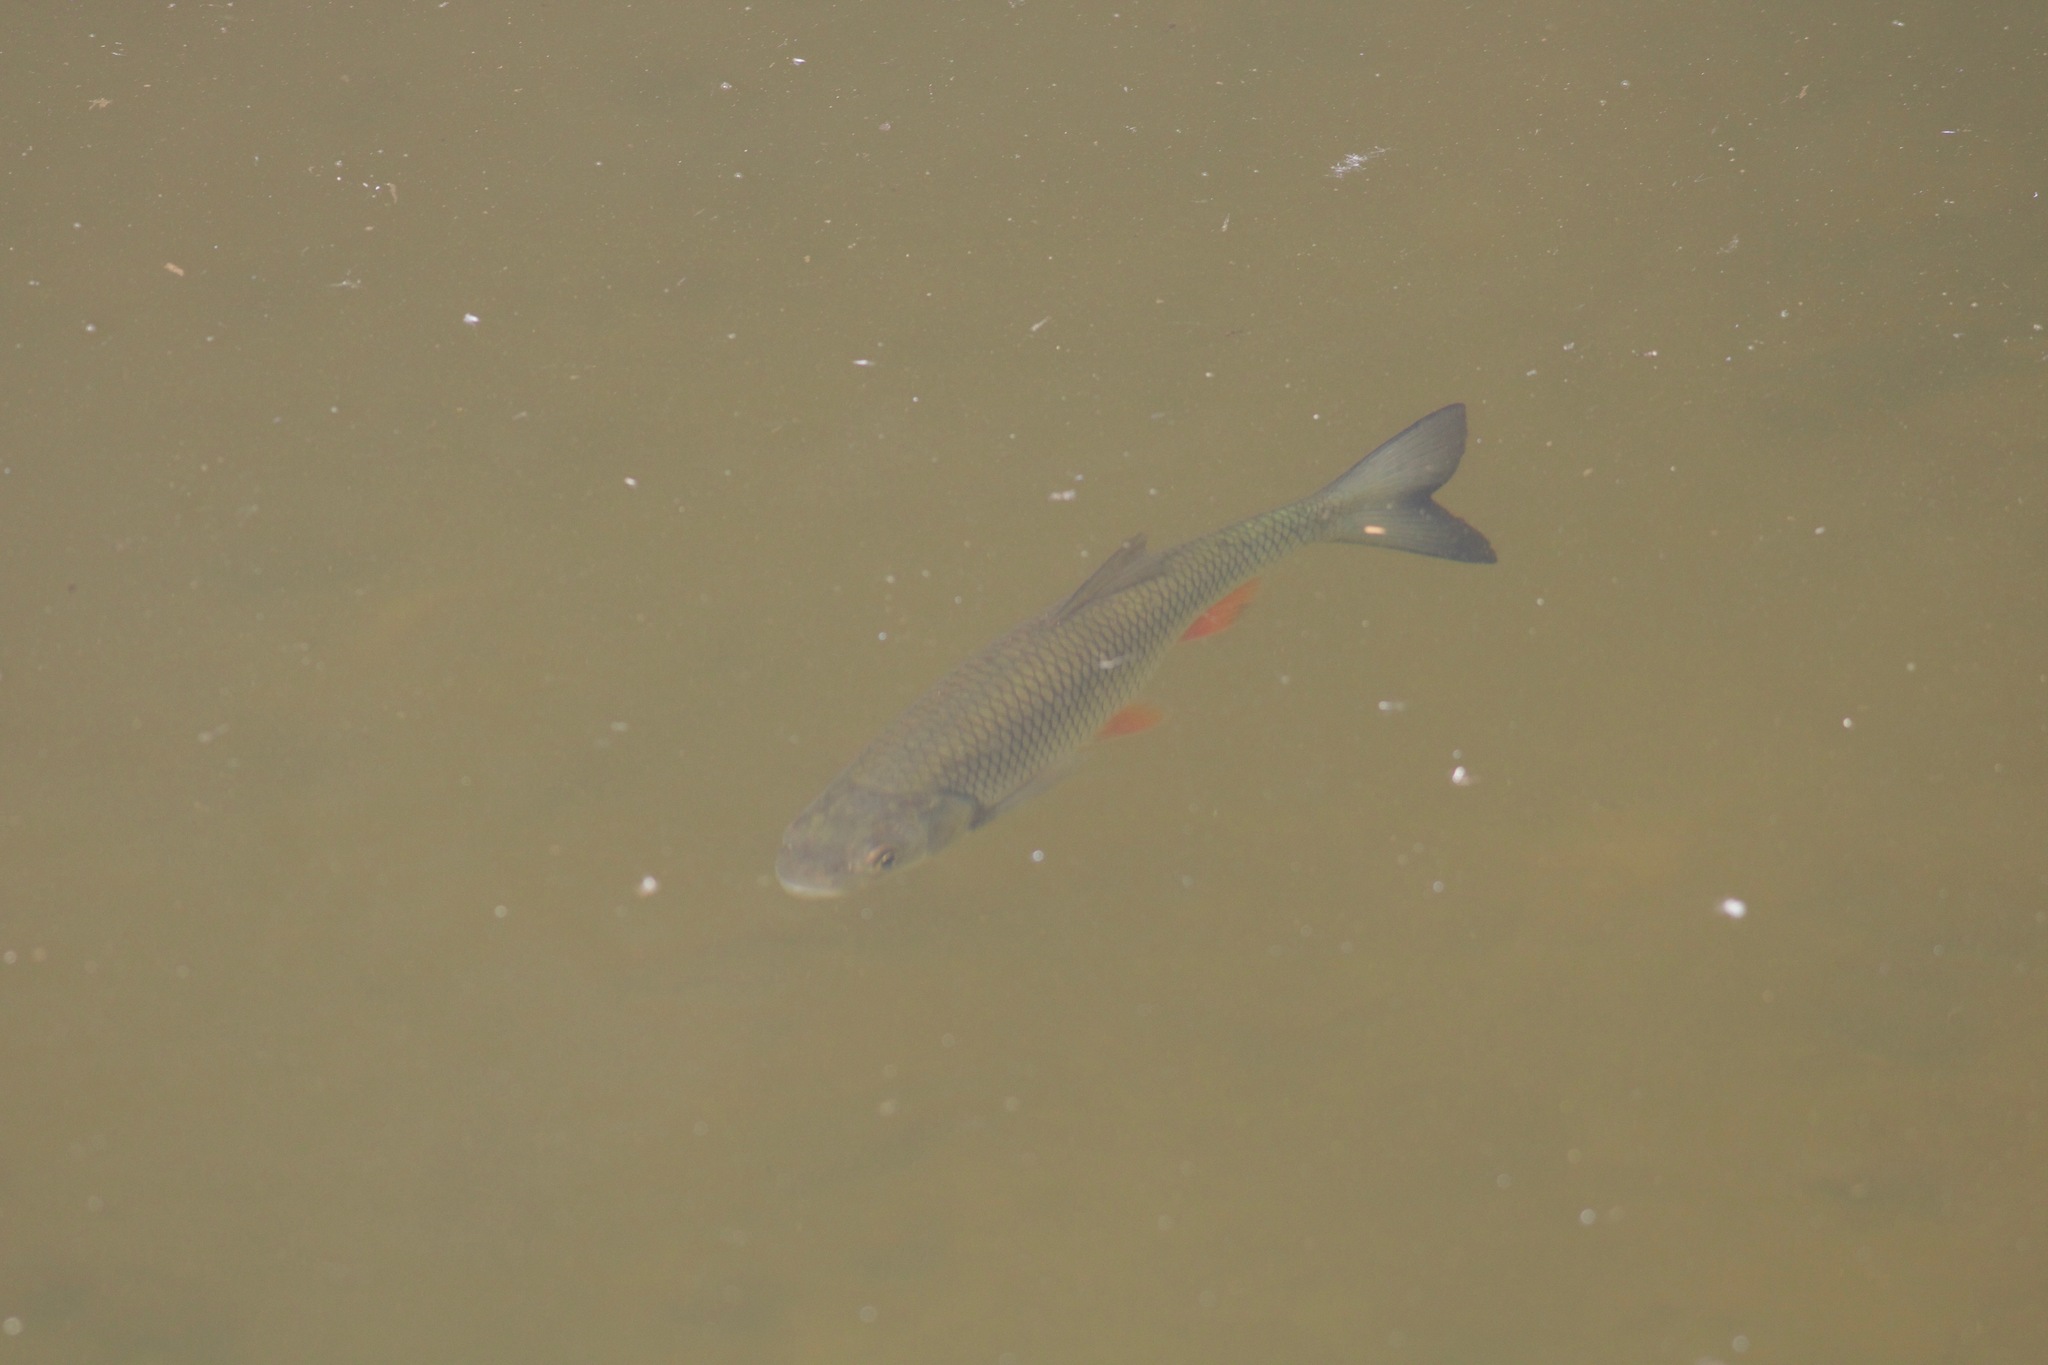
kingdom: Animalia
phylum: Chordata
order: Cypriniformes
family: Cyprinidae
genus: Squalius
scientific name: Squalius cephalus
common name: Chub
